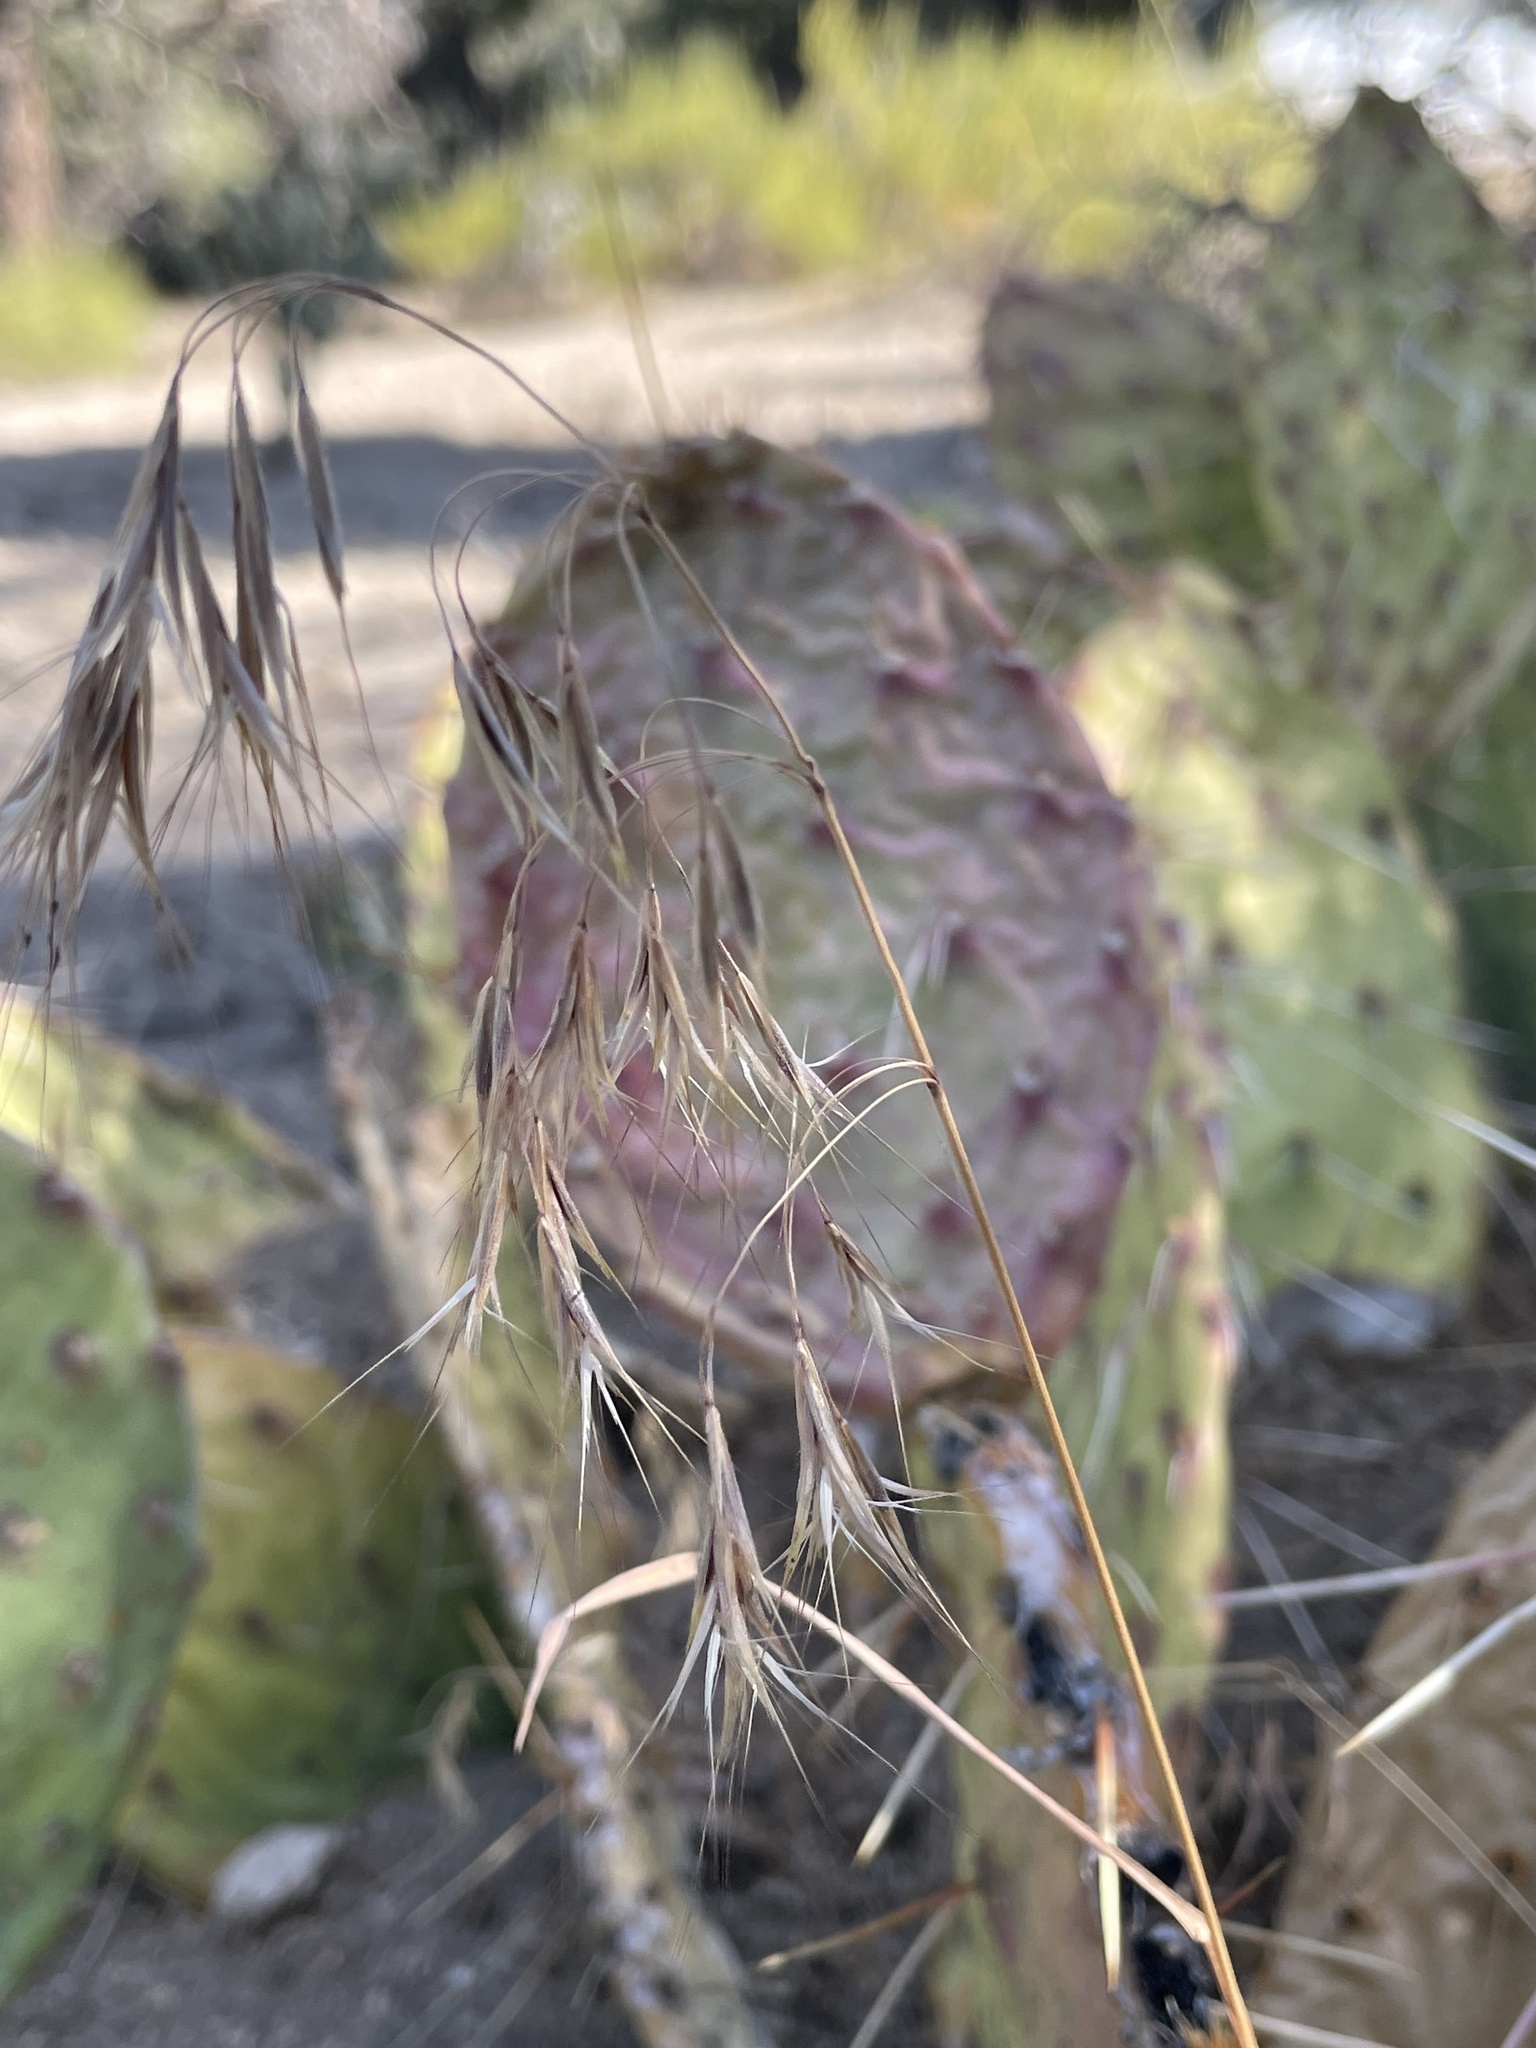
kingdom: Plantae
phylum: Tracheophyta
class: Liliopsida
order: Poales
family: Poaceae
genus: Bromus
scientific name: Bromus tectorum
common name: Cheatgrass
